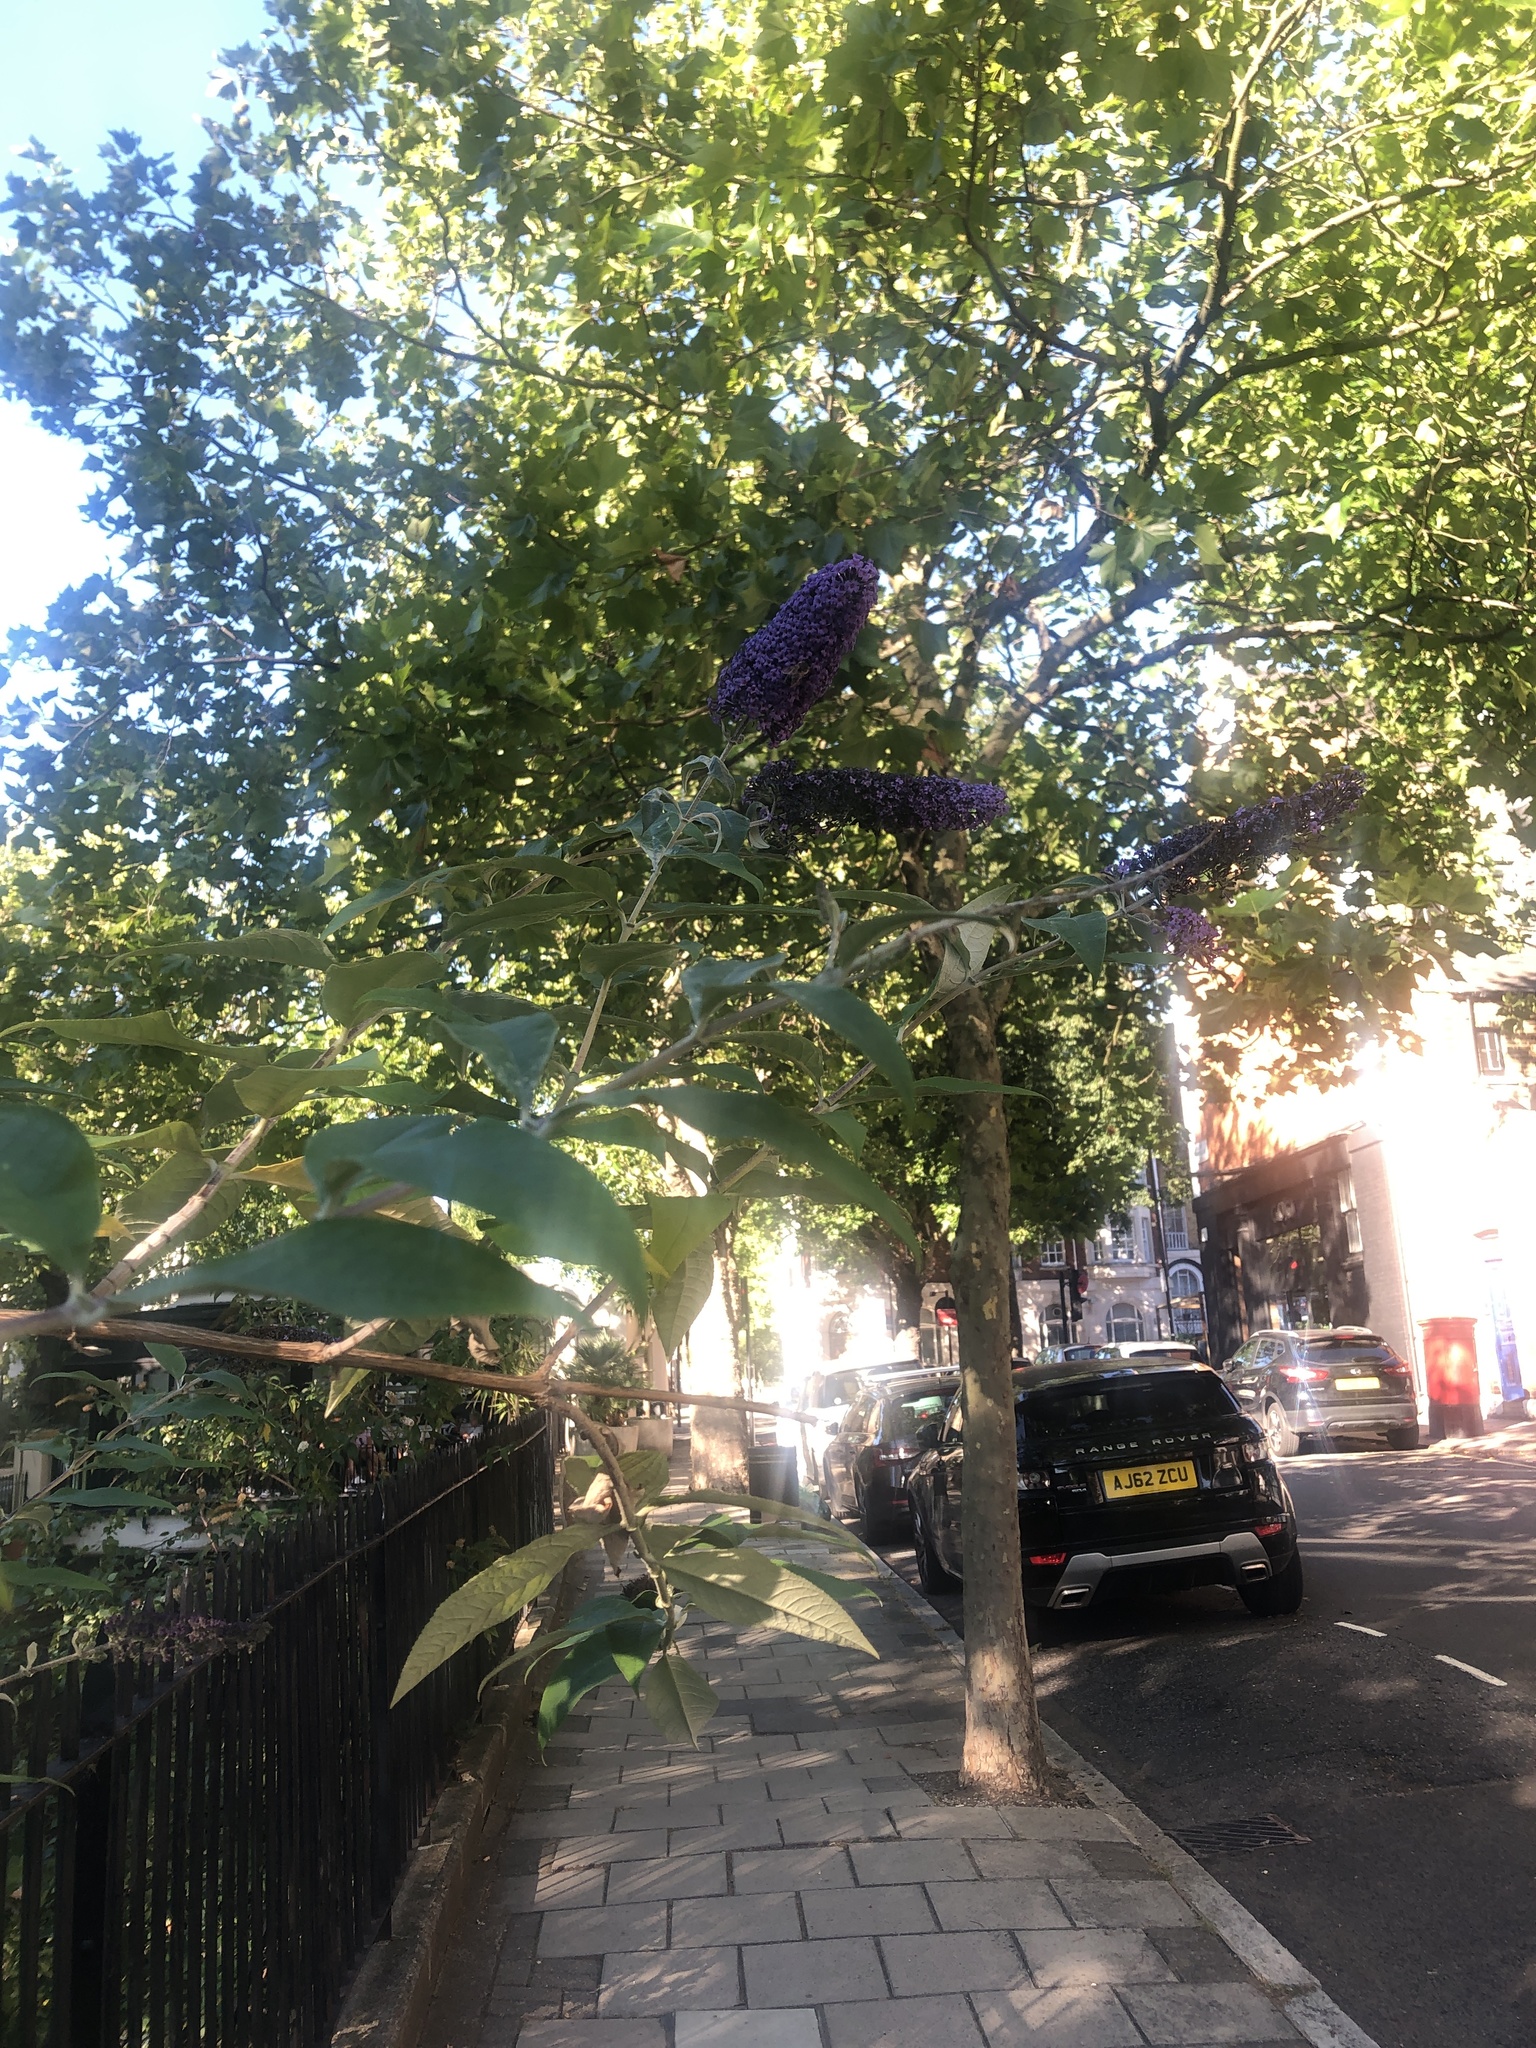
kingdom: Plantae
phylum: Tracheophyta
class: Magnoliopsida
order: Lamiales
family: Scrophulariaceae
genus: Buddleja
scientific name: Buddleja davidii
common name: Butterfly-bush
